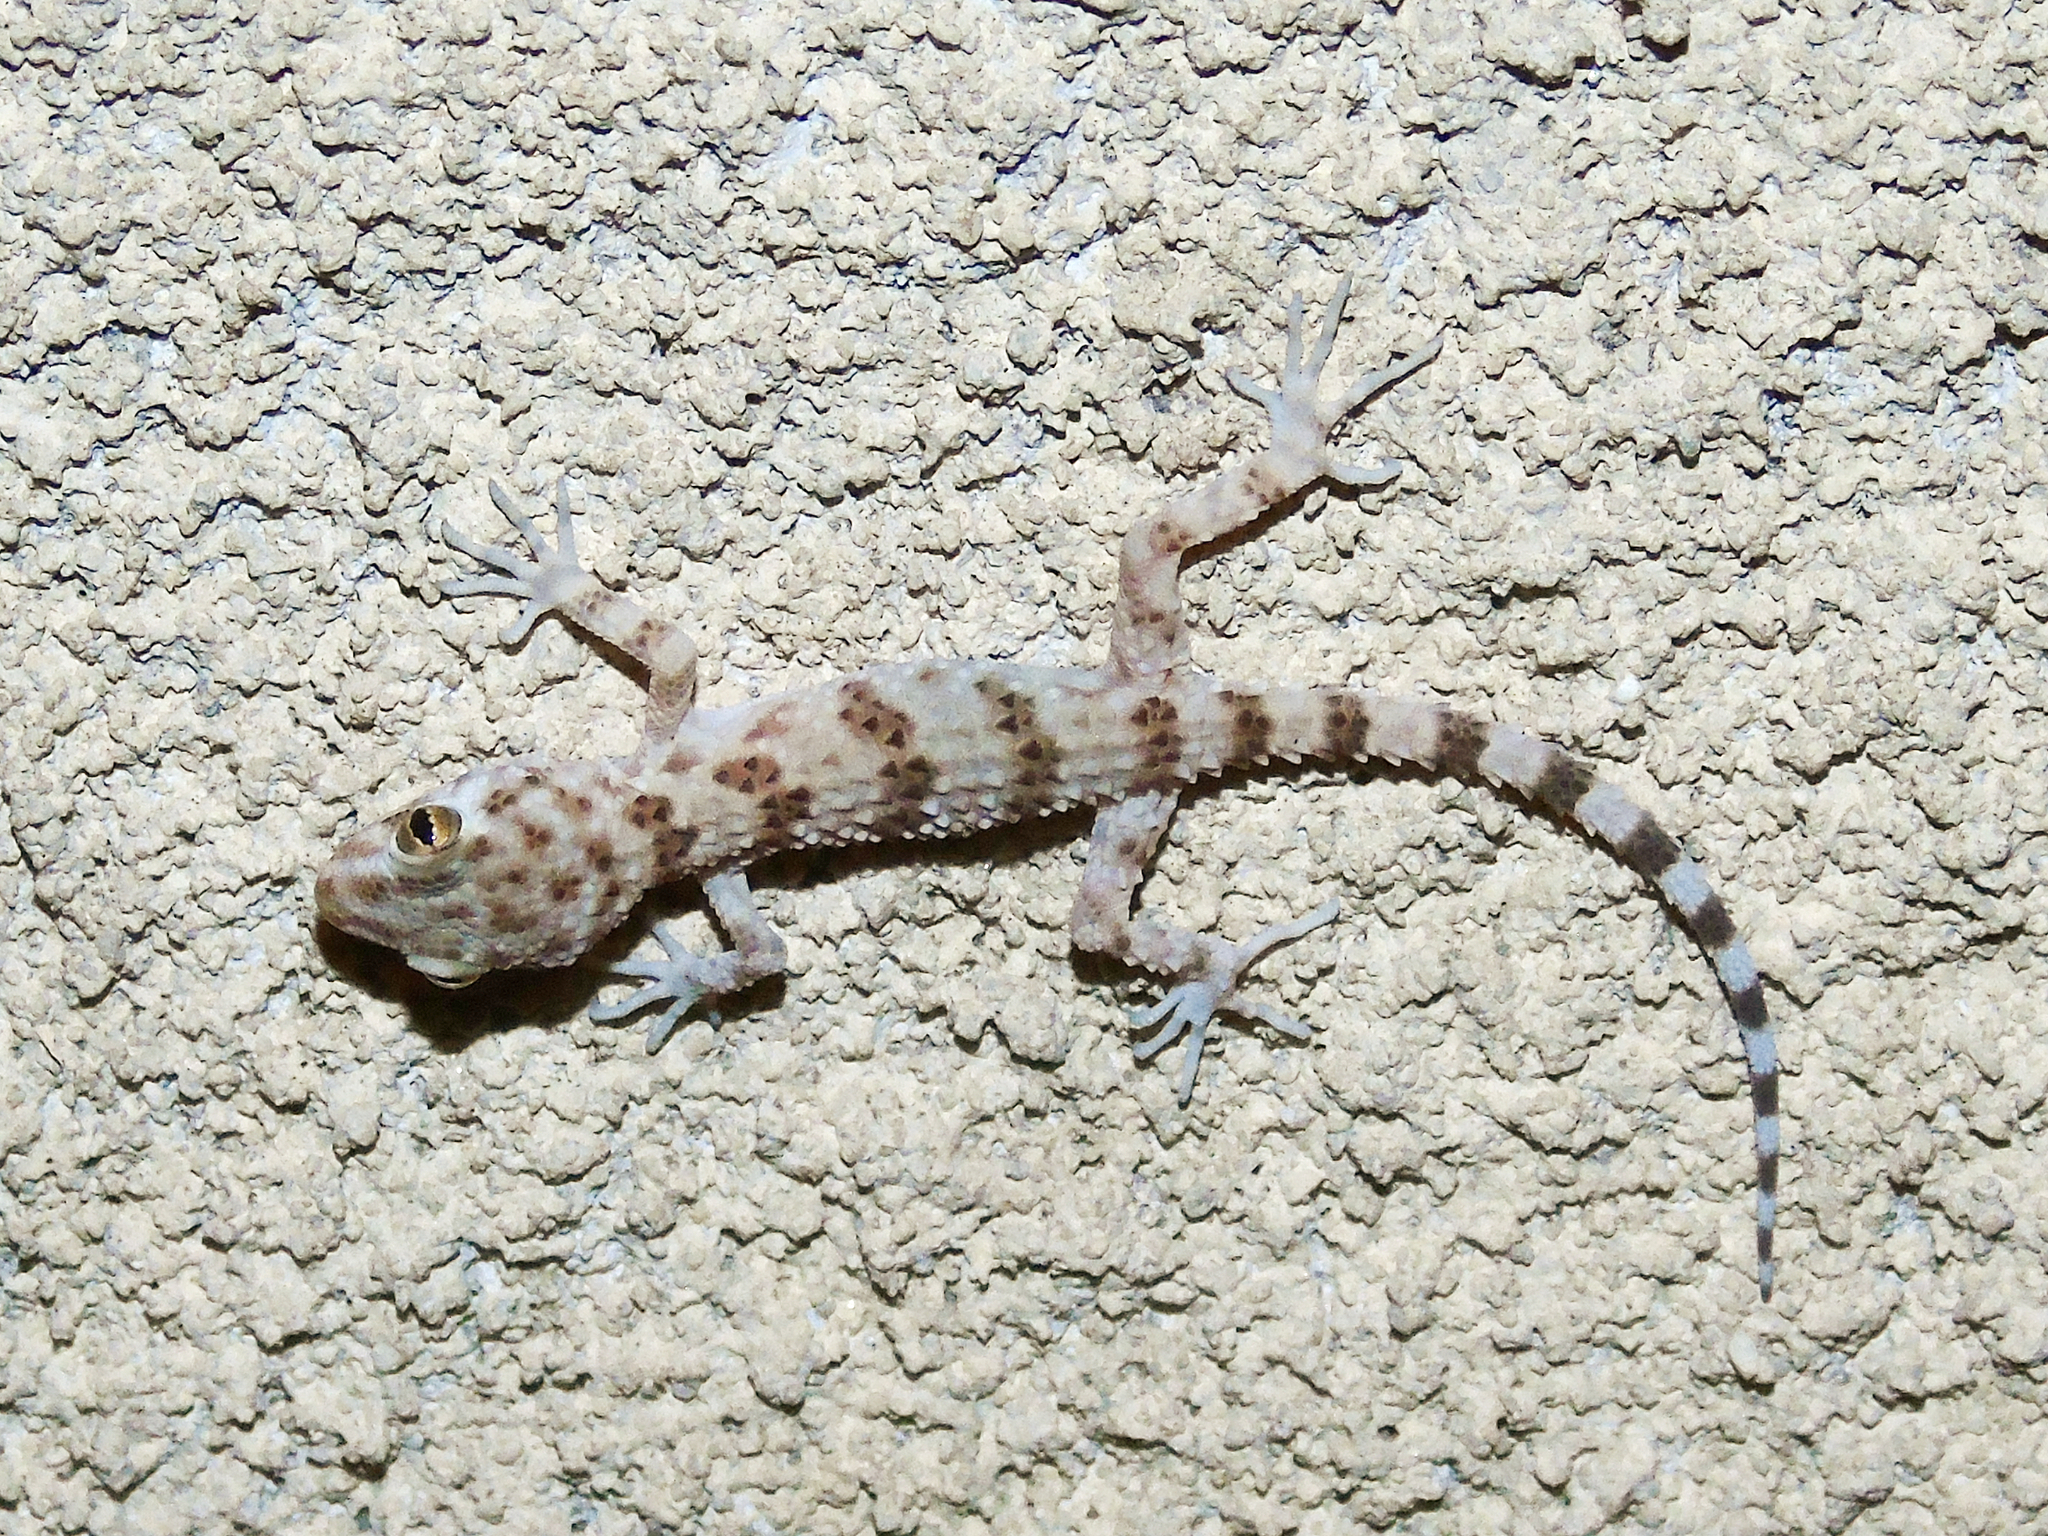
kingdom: Animalia
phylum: Chordata
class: Squamata
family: Gekkonidae
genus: Tenuidactylus
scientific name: Tenuidactylus caspius
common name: Caspian bent-toed gecko
